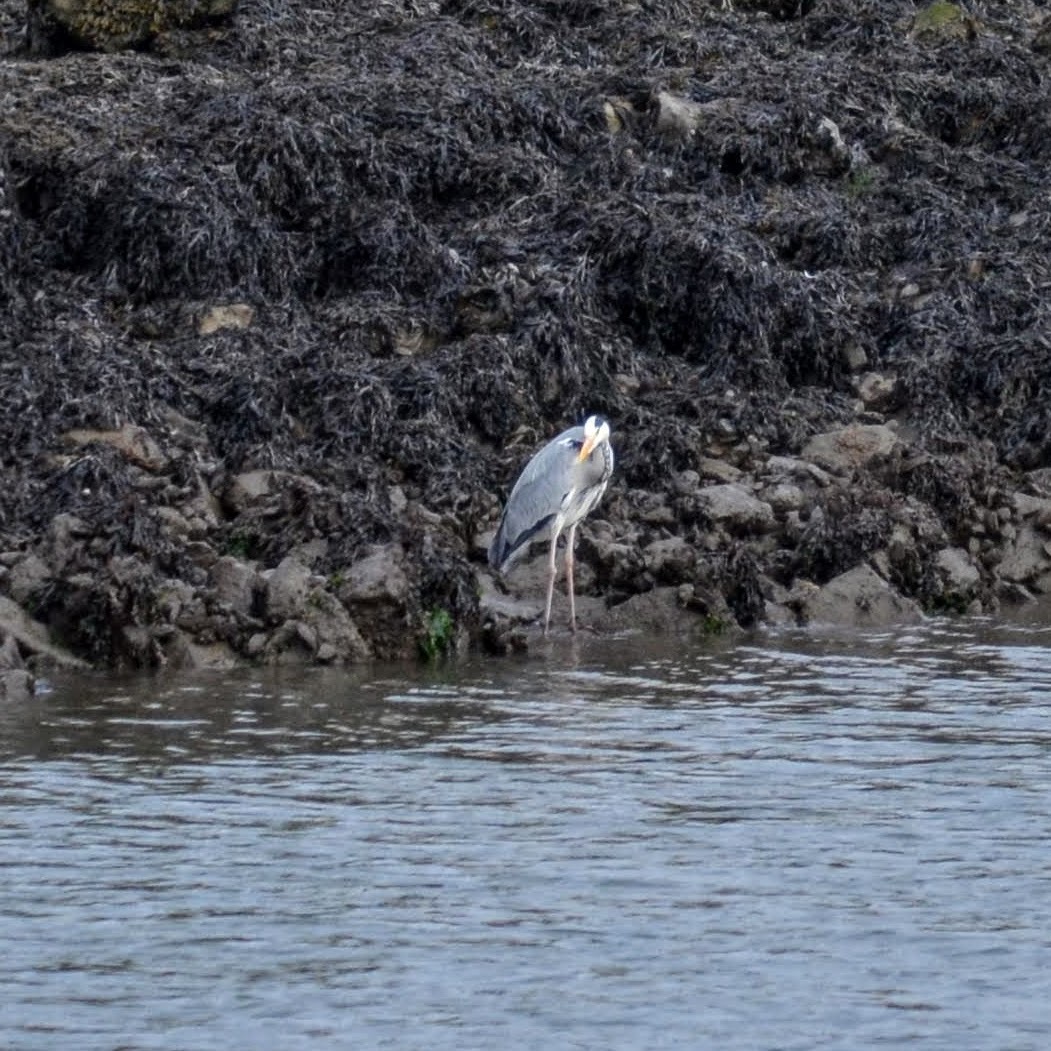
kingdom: Animalia
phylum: Chordata
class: Aves
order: Pelecaniformes
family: Ardeidae
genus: Ardea
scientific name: Ardea cinerea
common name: Grey heron
